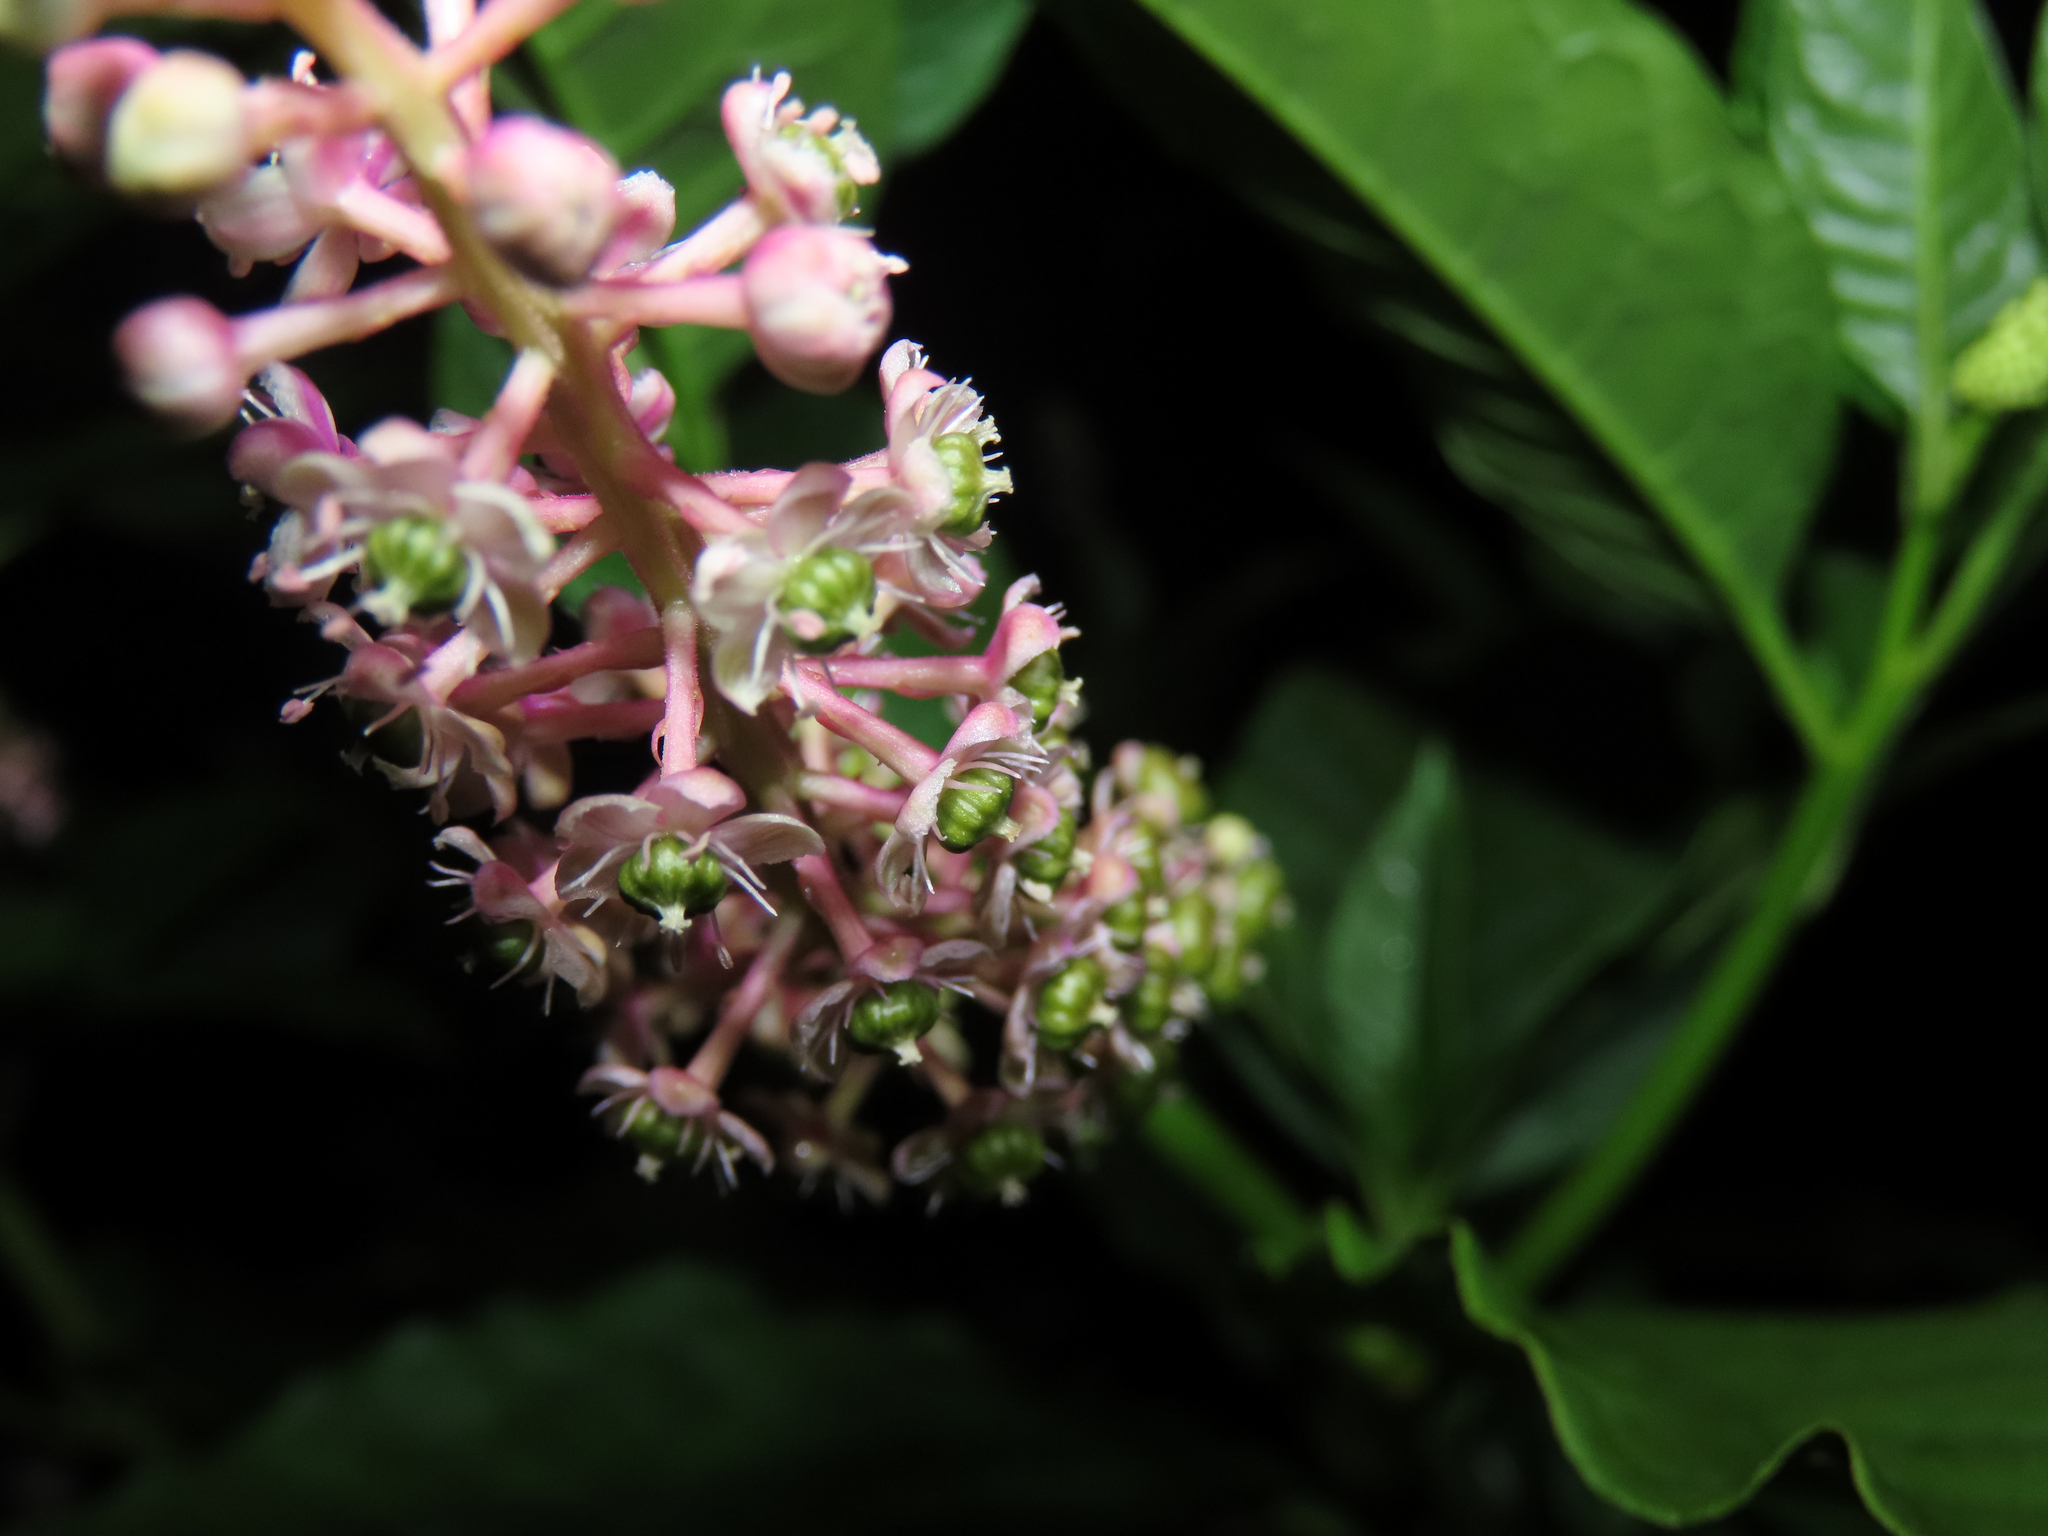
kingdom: Plantae
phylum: Tracheophyta
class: Magnoliopsida
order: Caryophyllales
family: Phytolaccaceae
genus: Phytolacca
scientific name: Phytolacca americana
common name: American pokeweed
